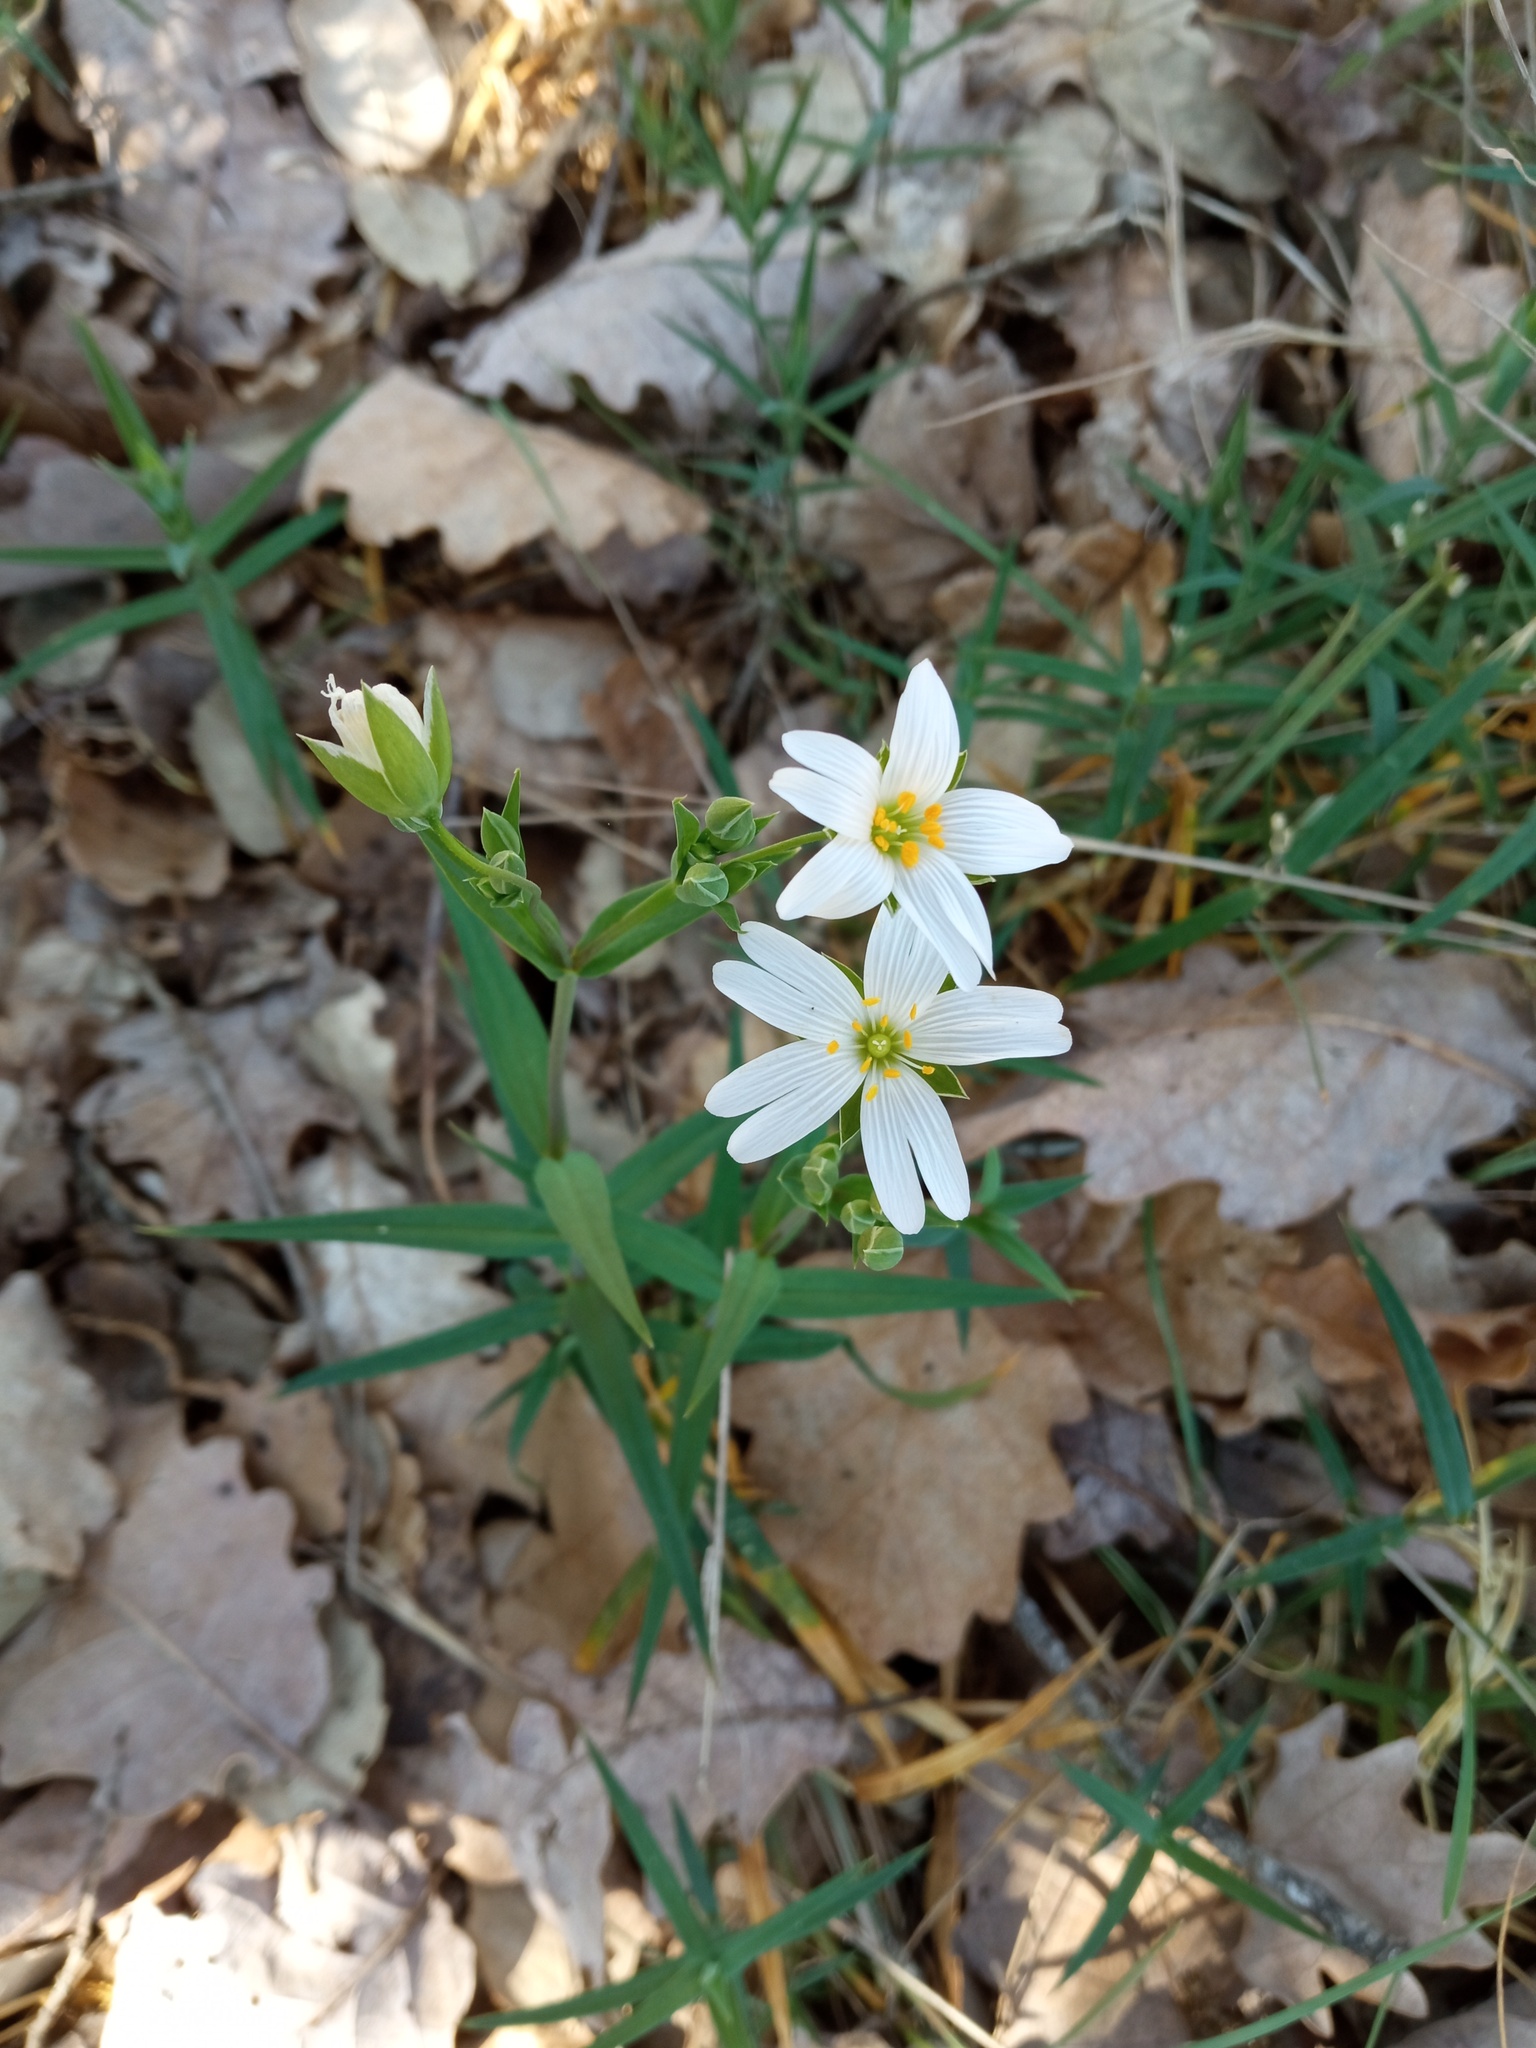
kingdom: Plantae
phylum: Tracheophyta
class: Magnoliopsida
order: Caryophyllales
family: Caryophyllaceae
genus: Rabelera
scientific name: Rabelera holostea
